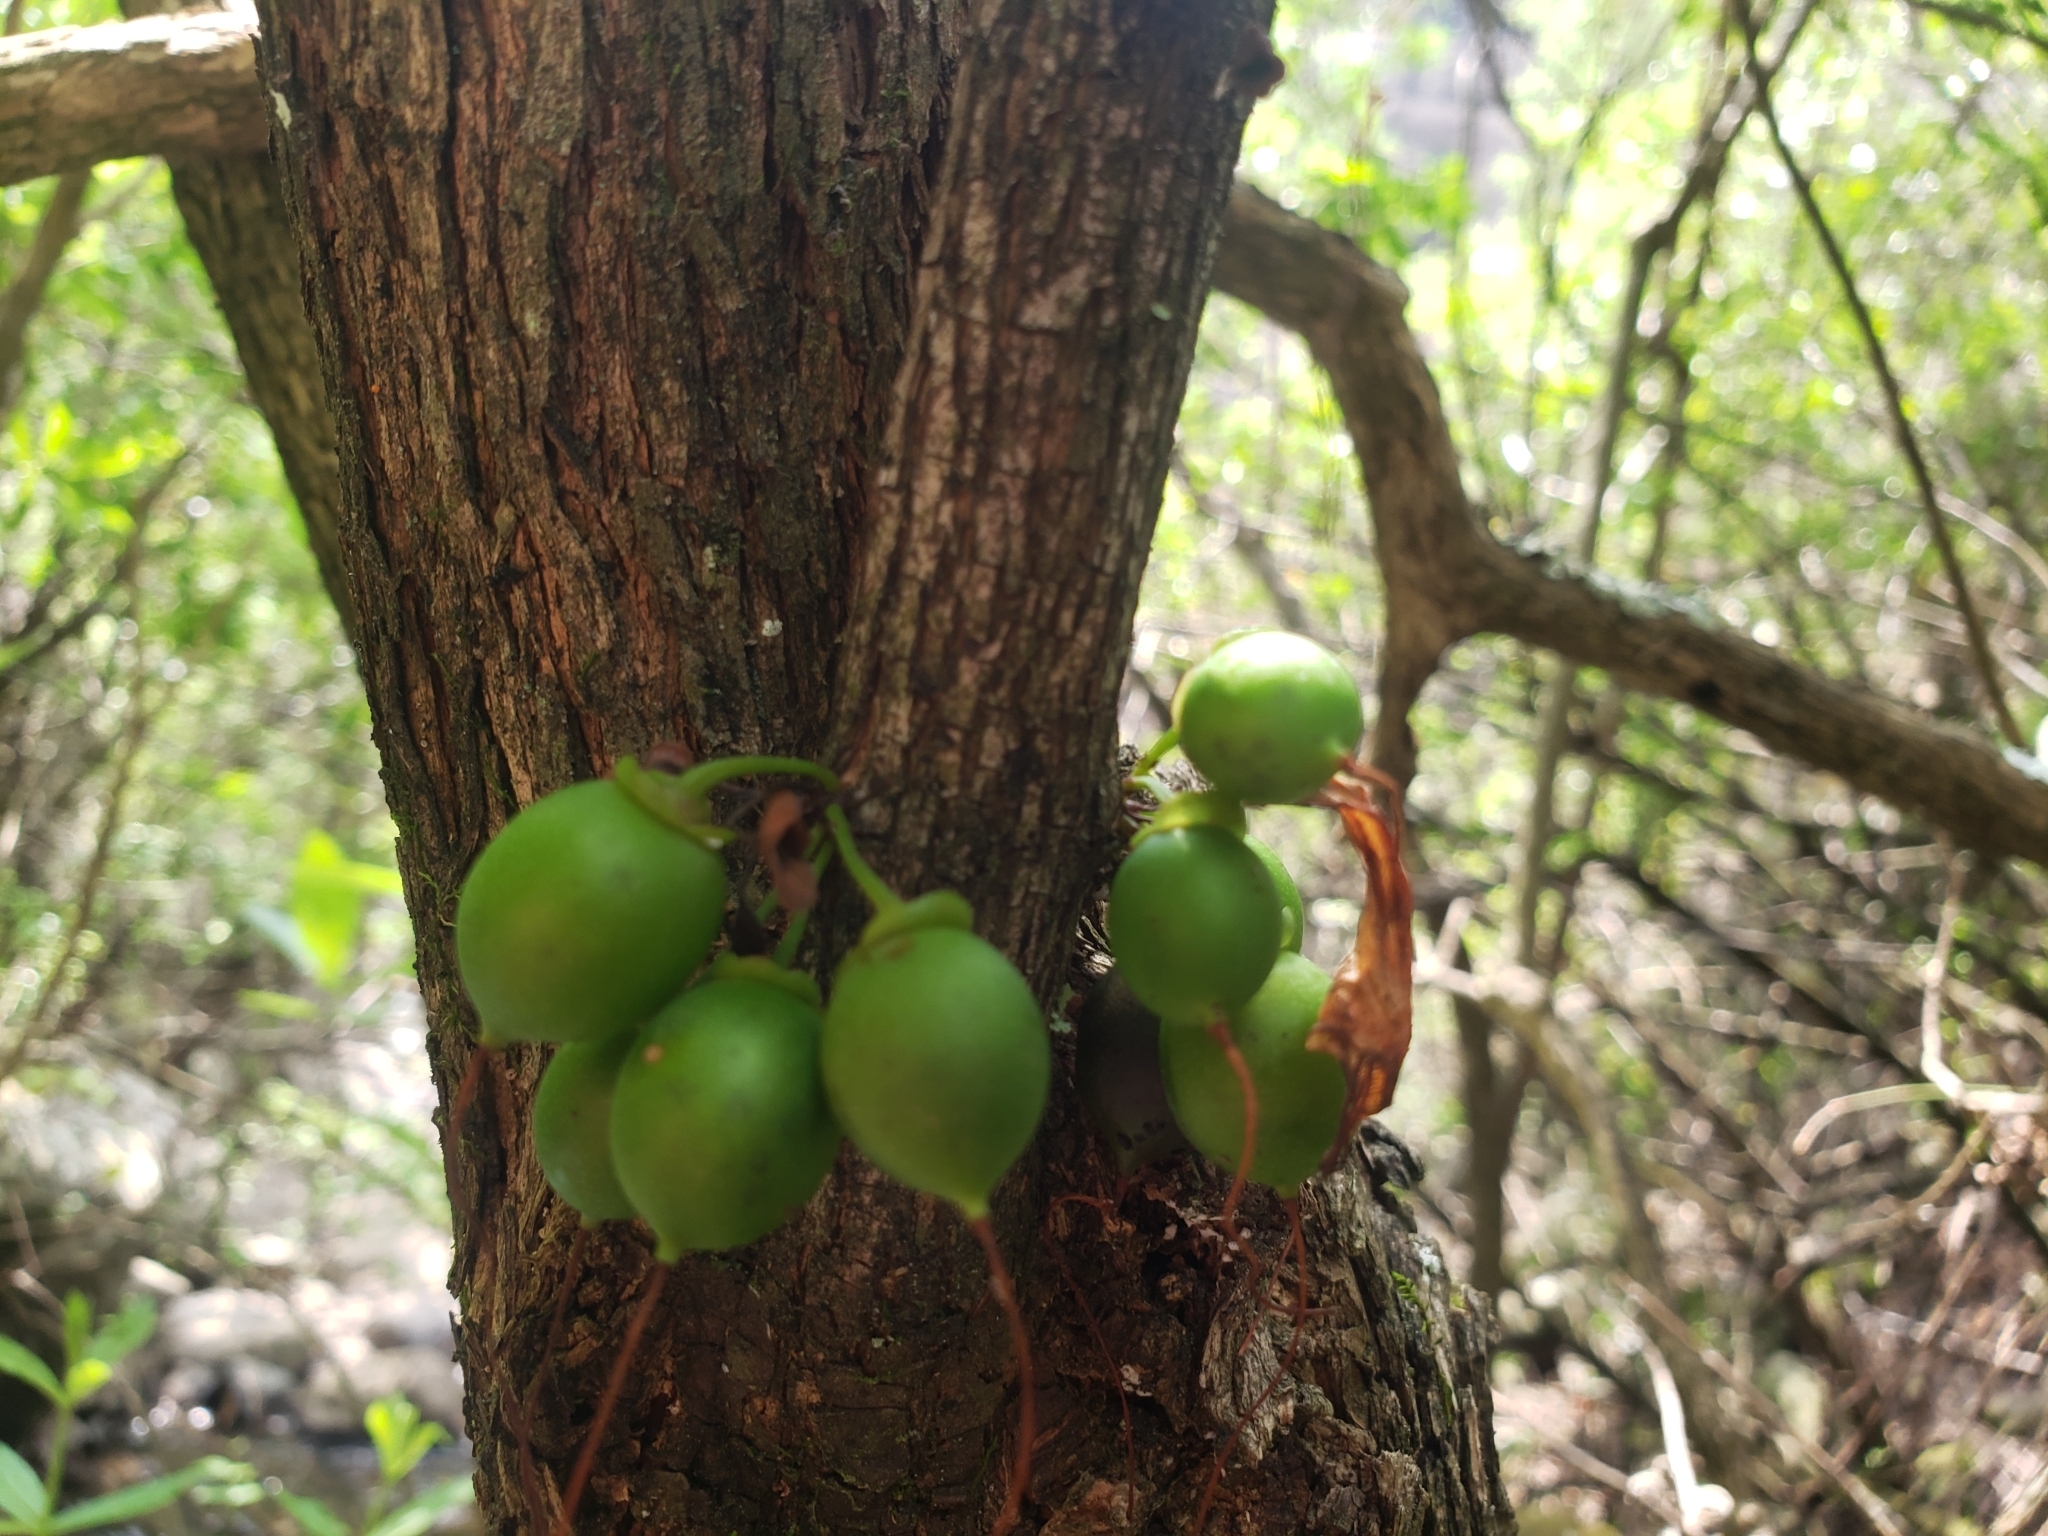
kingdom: Plantae
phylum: Tracheophyta
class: Magnoliopsida
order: Lamiales
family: Stilbaceae
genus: Halleria
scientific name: Halleria lucida
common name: Tree fuschia
